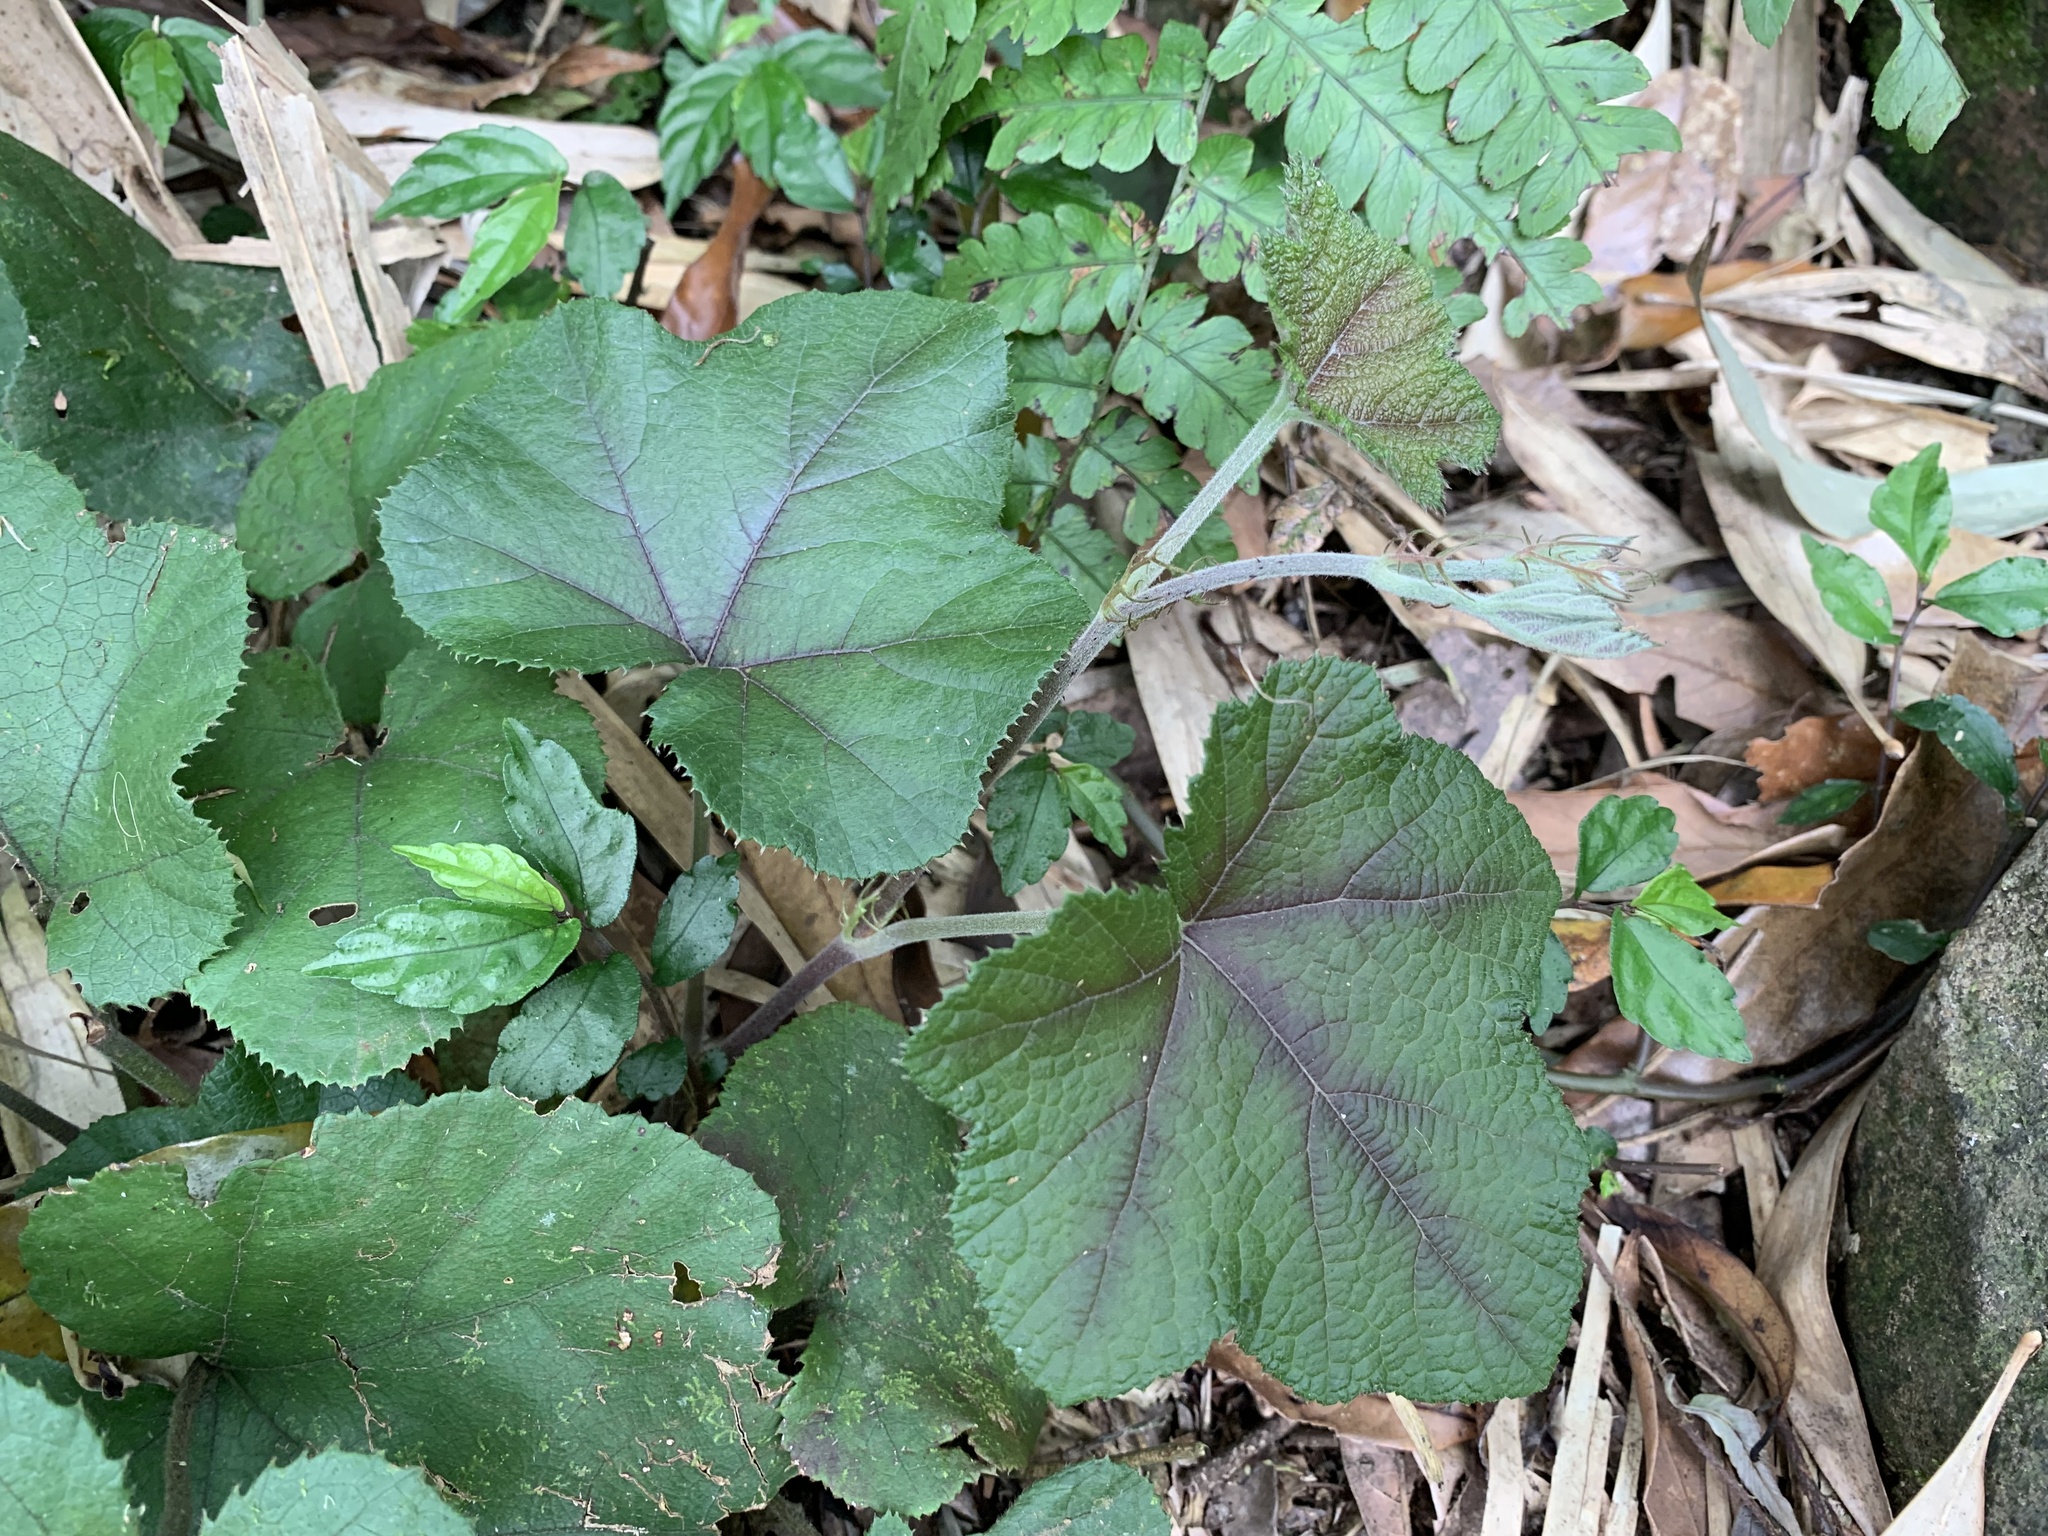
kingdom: Plantae
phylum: Tracheophyta
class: Magnoliopsida
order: Rosales
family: Rosaceae
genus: Rubus
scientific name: Rubus buergeri
